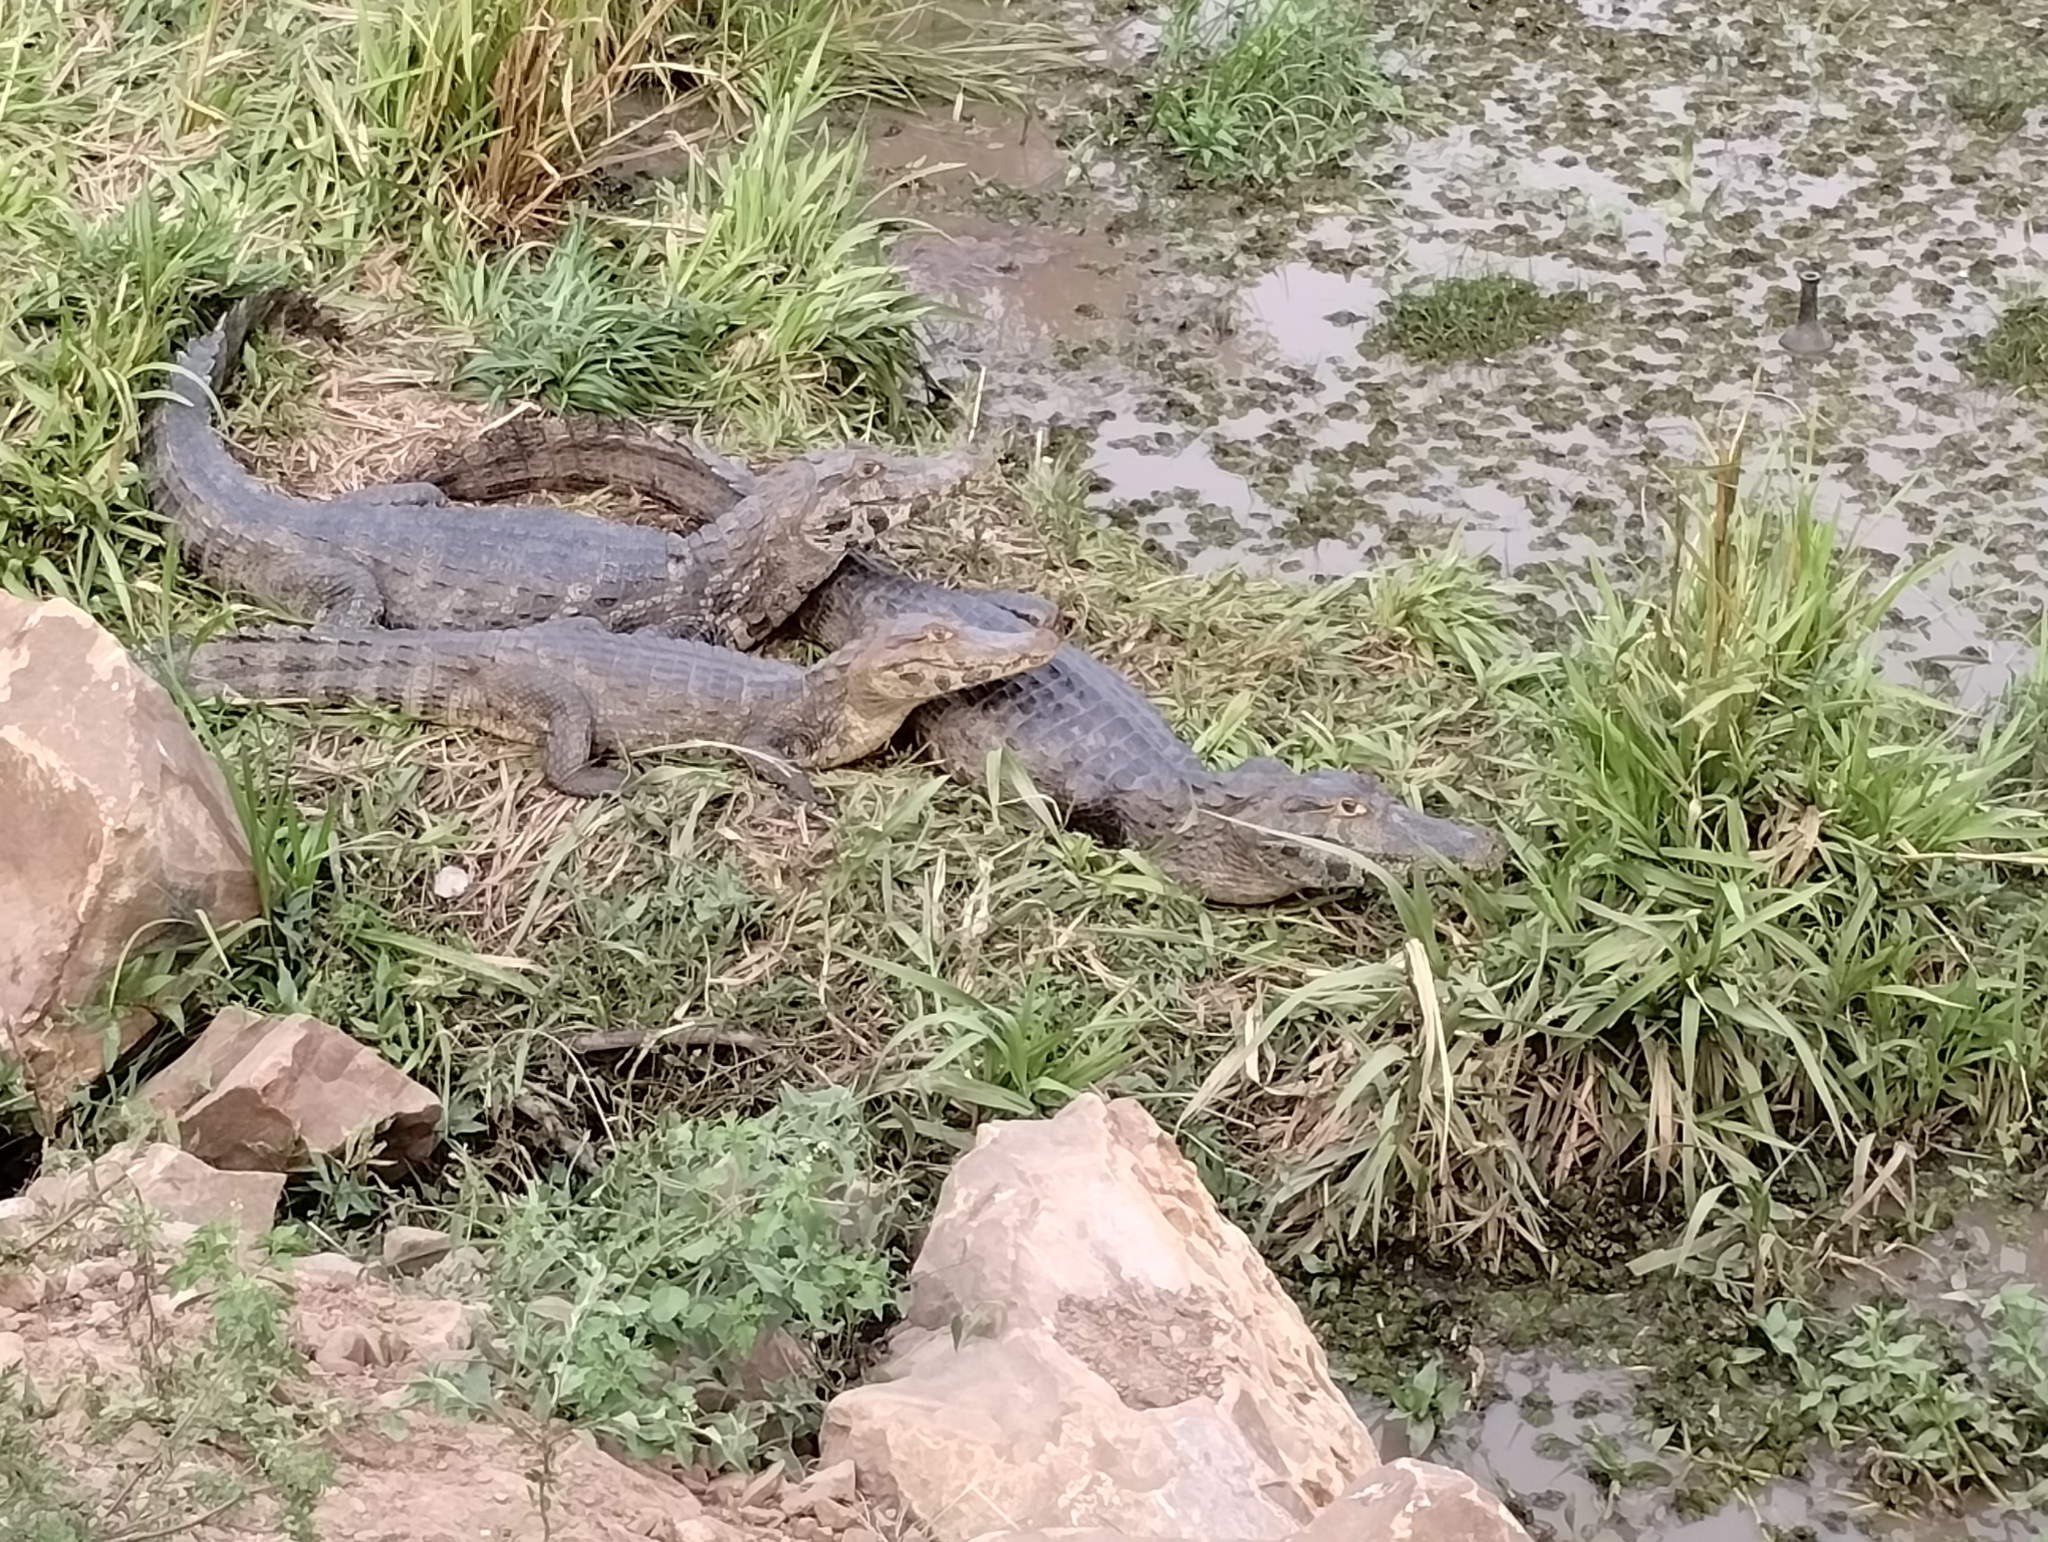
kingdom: Animalia
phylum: Chordata
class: Crocodylia
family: Alligatoridae
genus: Caiman
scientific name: Caiman yacare
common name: Yacare caiman
